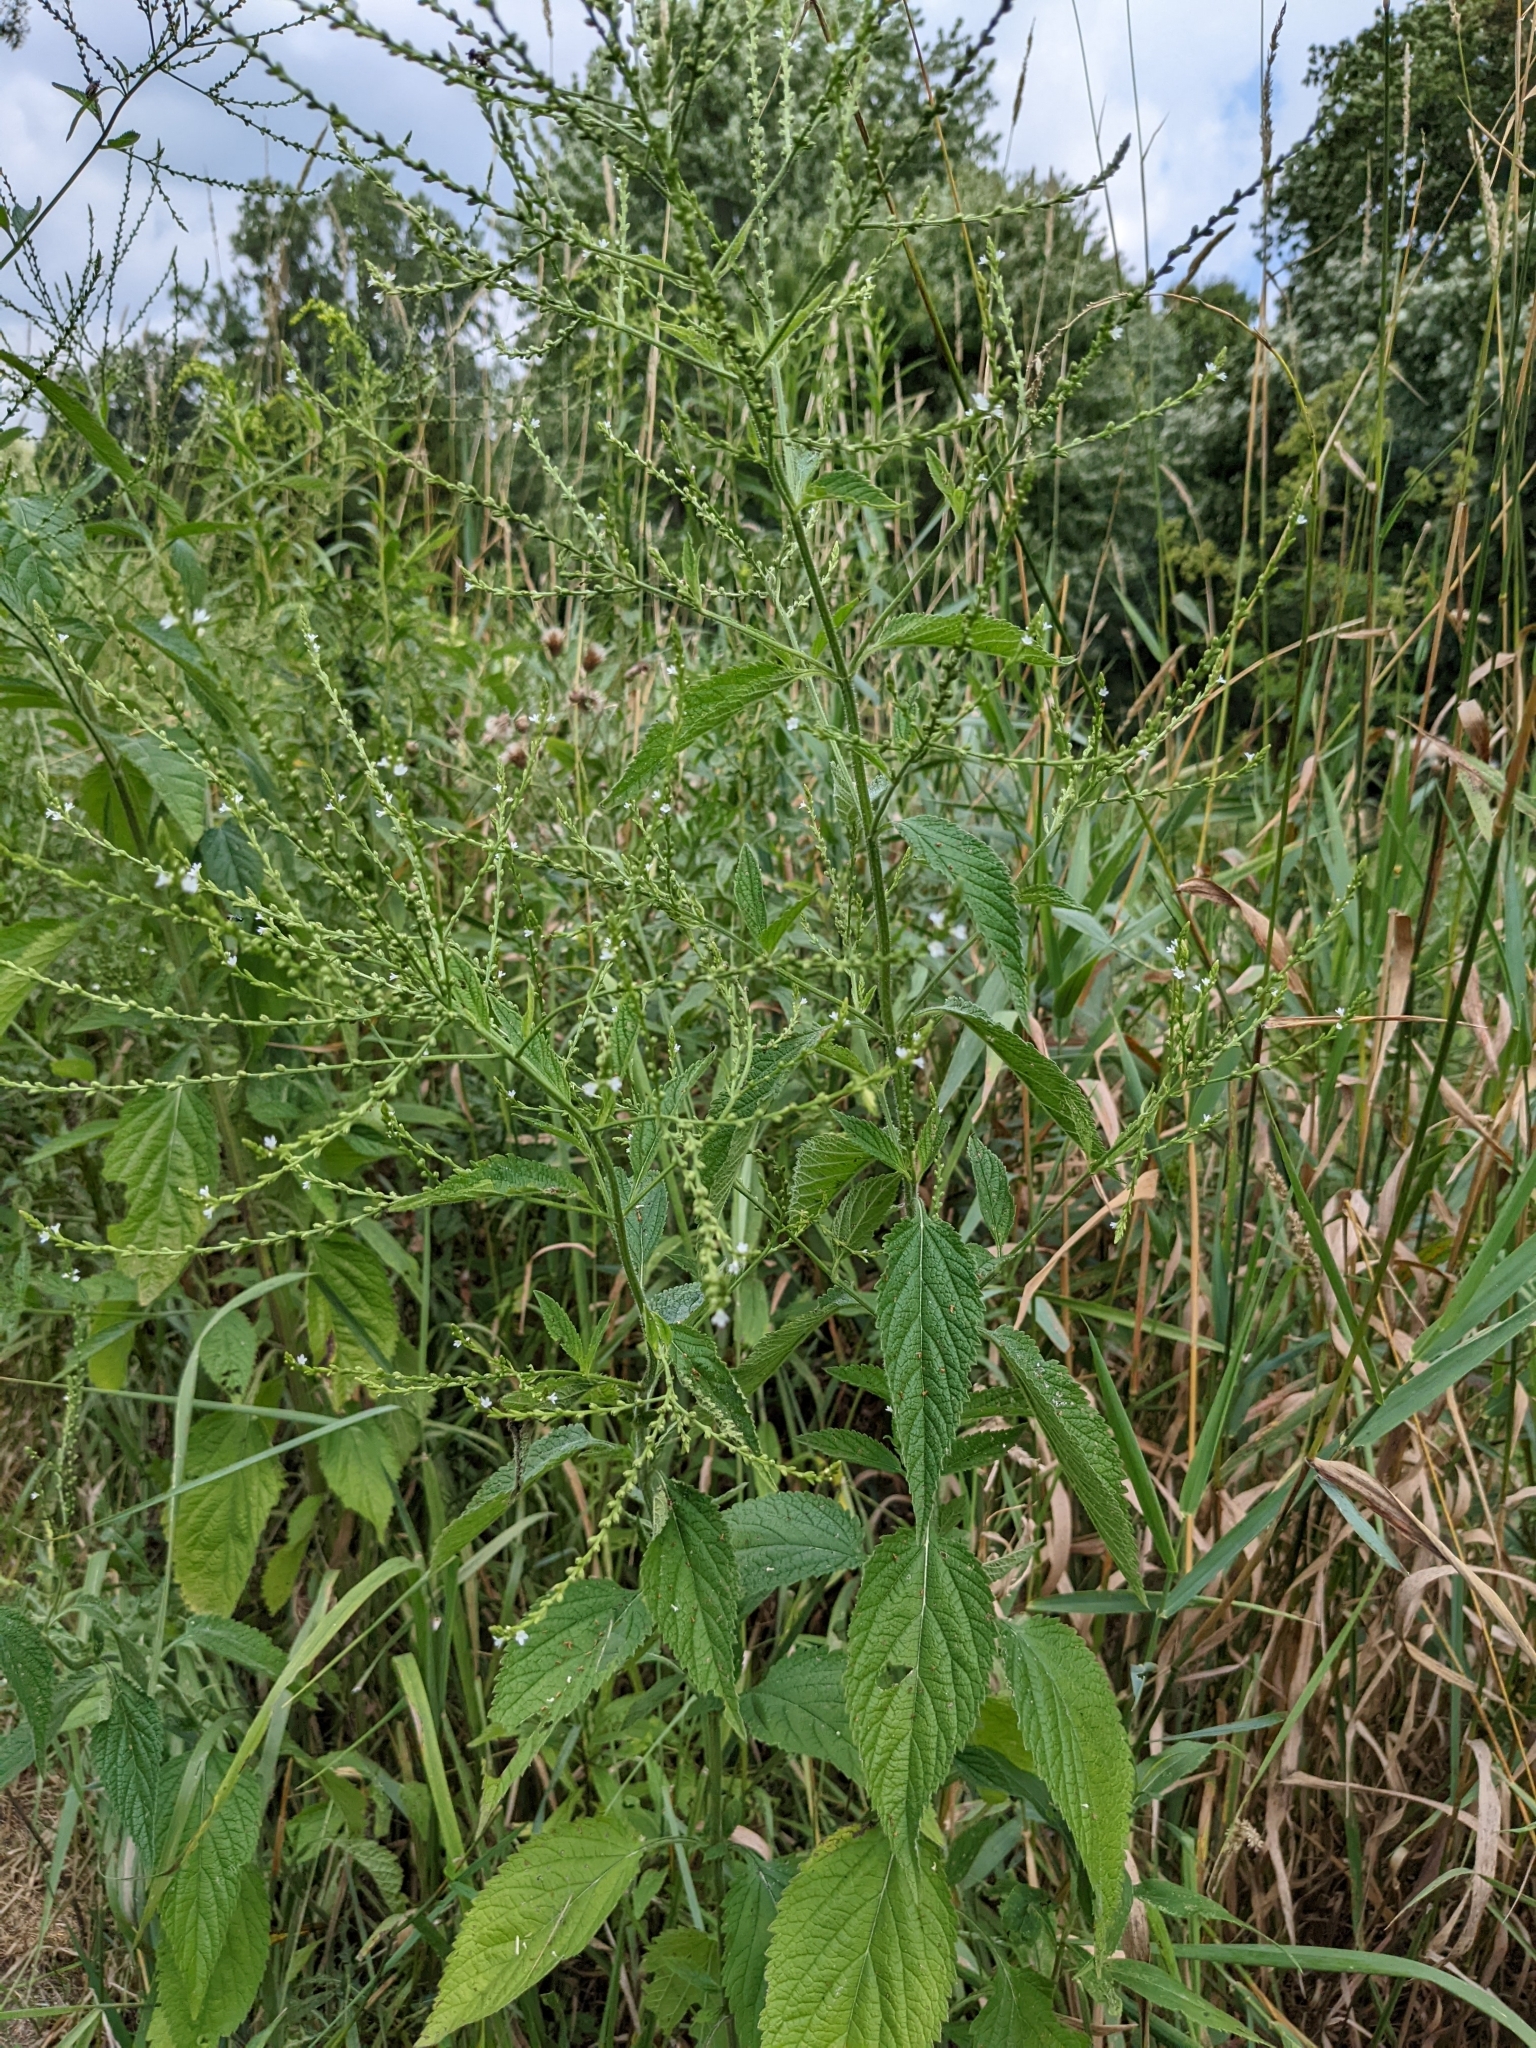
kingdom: Plantae
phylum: Tracheophyta
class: Magnoliopsida
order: Lamiales
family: Verbenaceae
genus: Verbena
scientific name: Verbena urticifolia
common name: Nettle-leaved vervain
